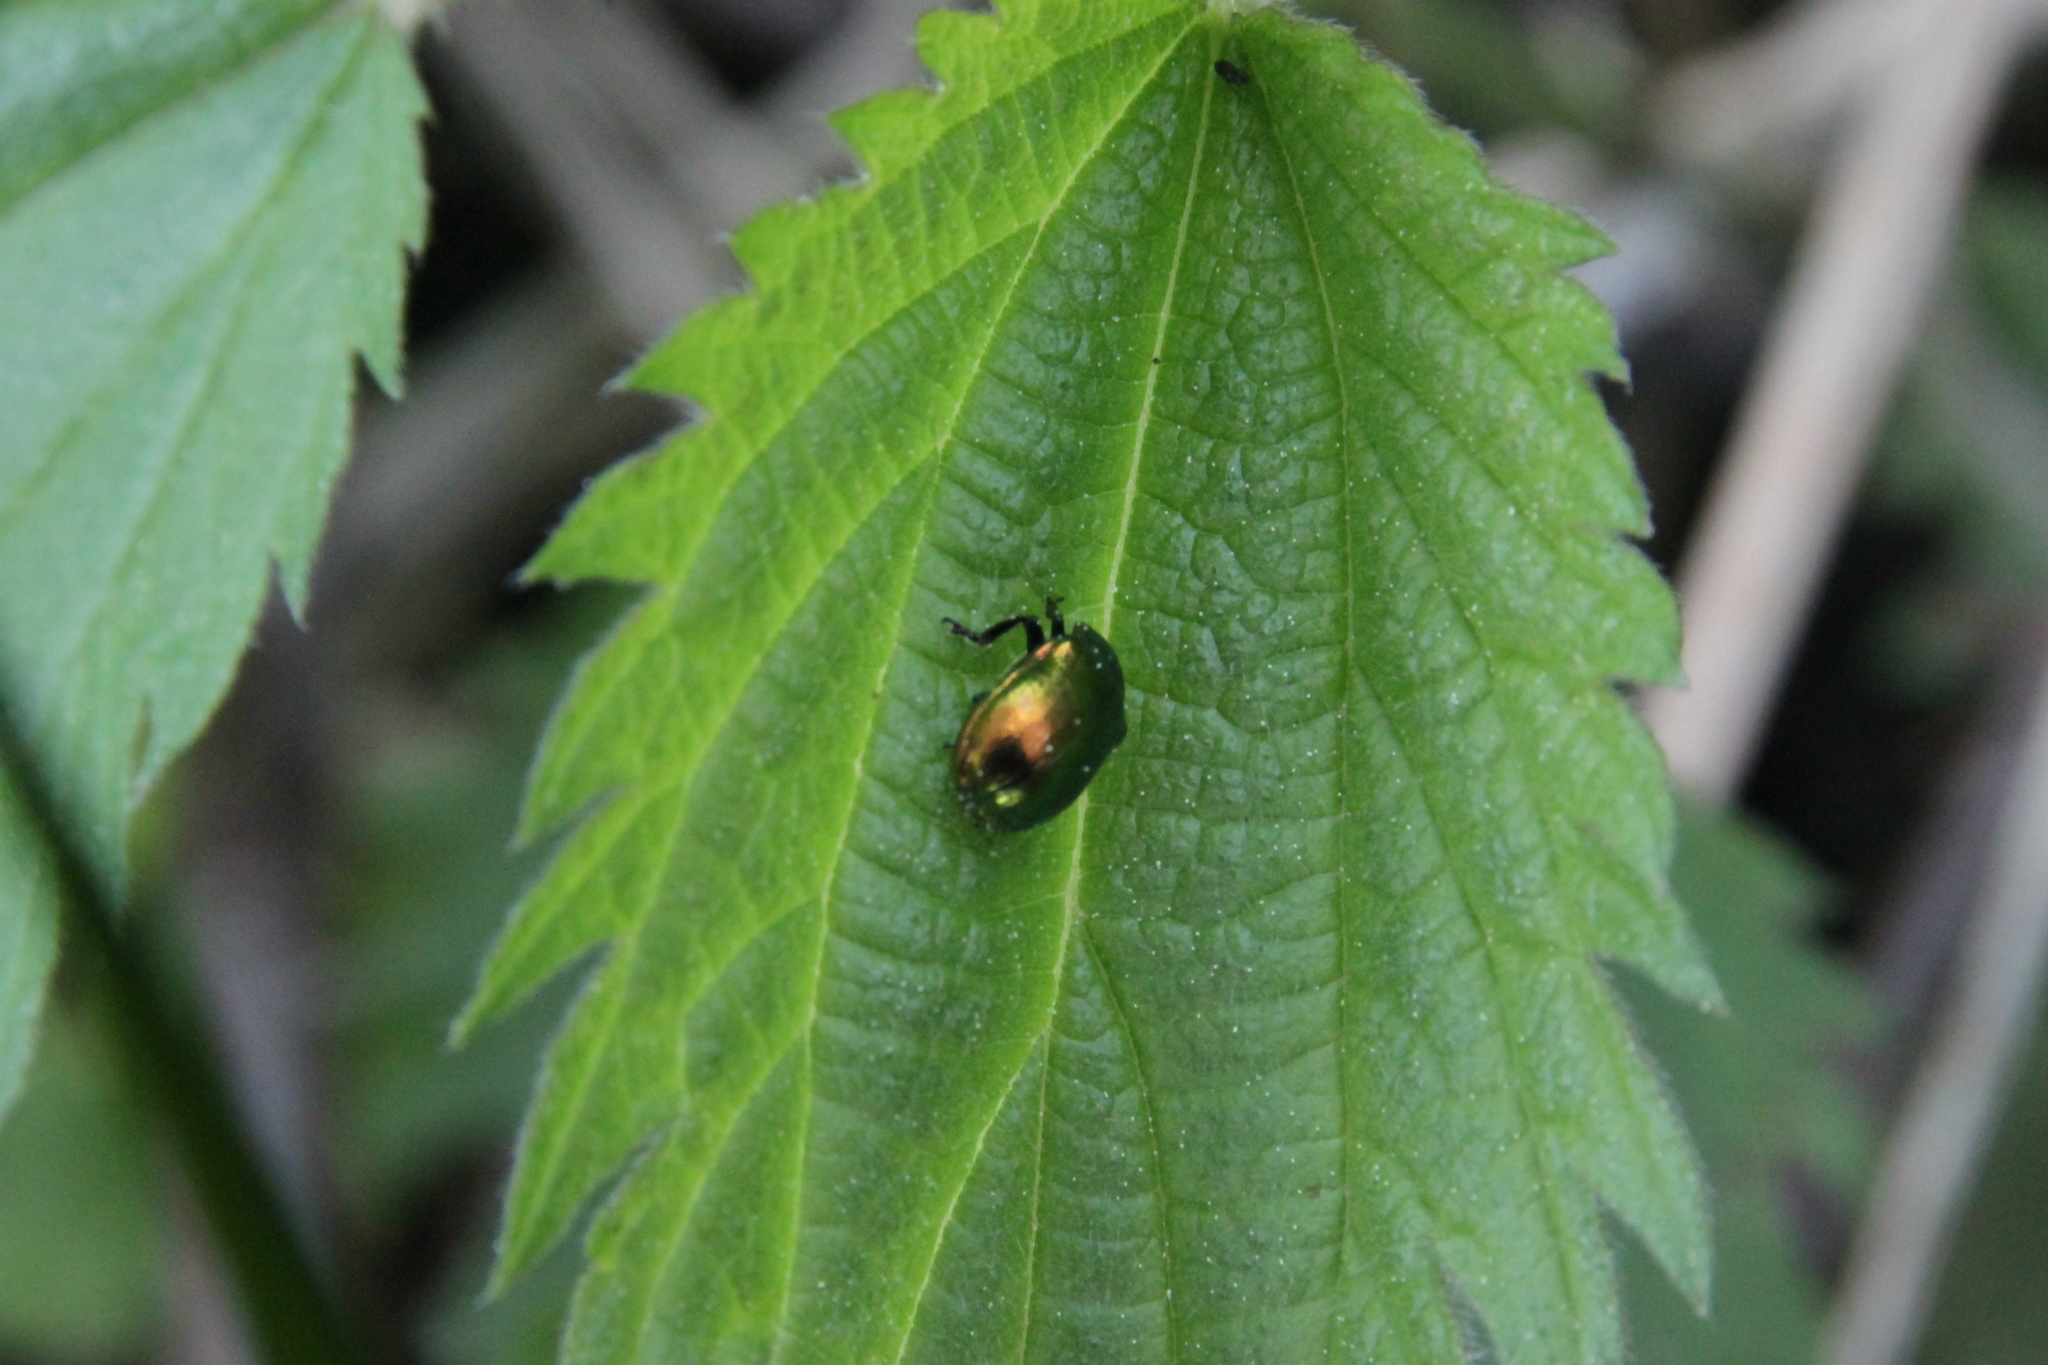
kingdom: Animalia
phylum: Arthropoda
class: Insecta
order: Coleoptera
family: Chrysomelidae
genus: Plagiosterna
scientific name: Plagiosterna aenea
